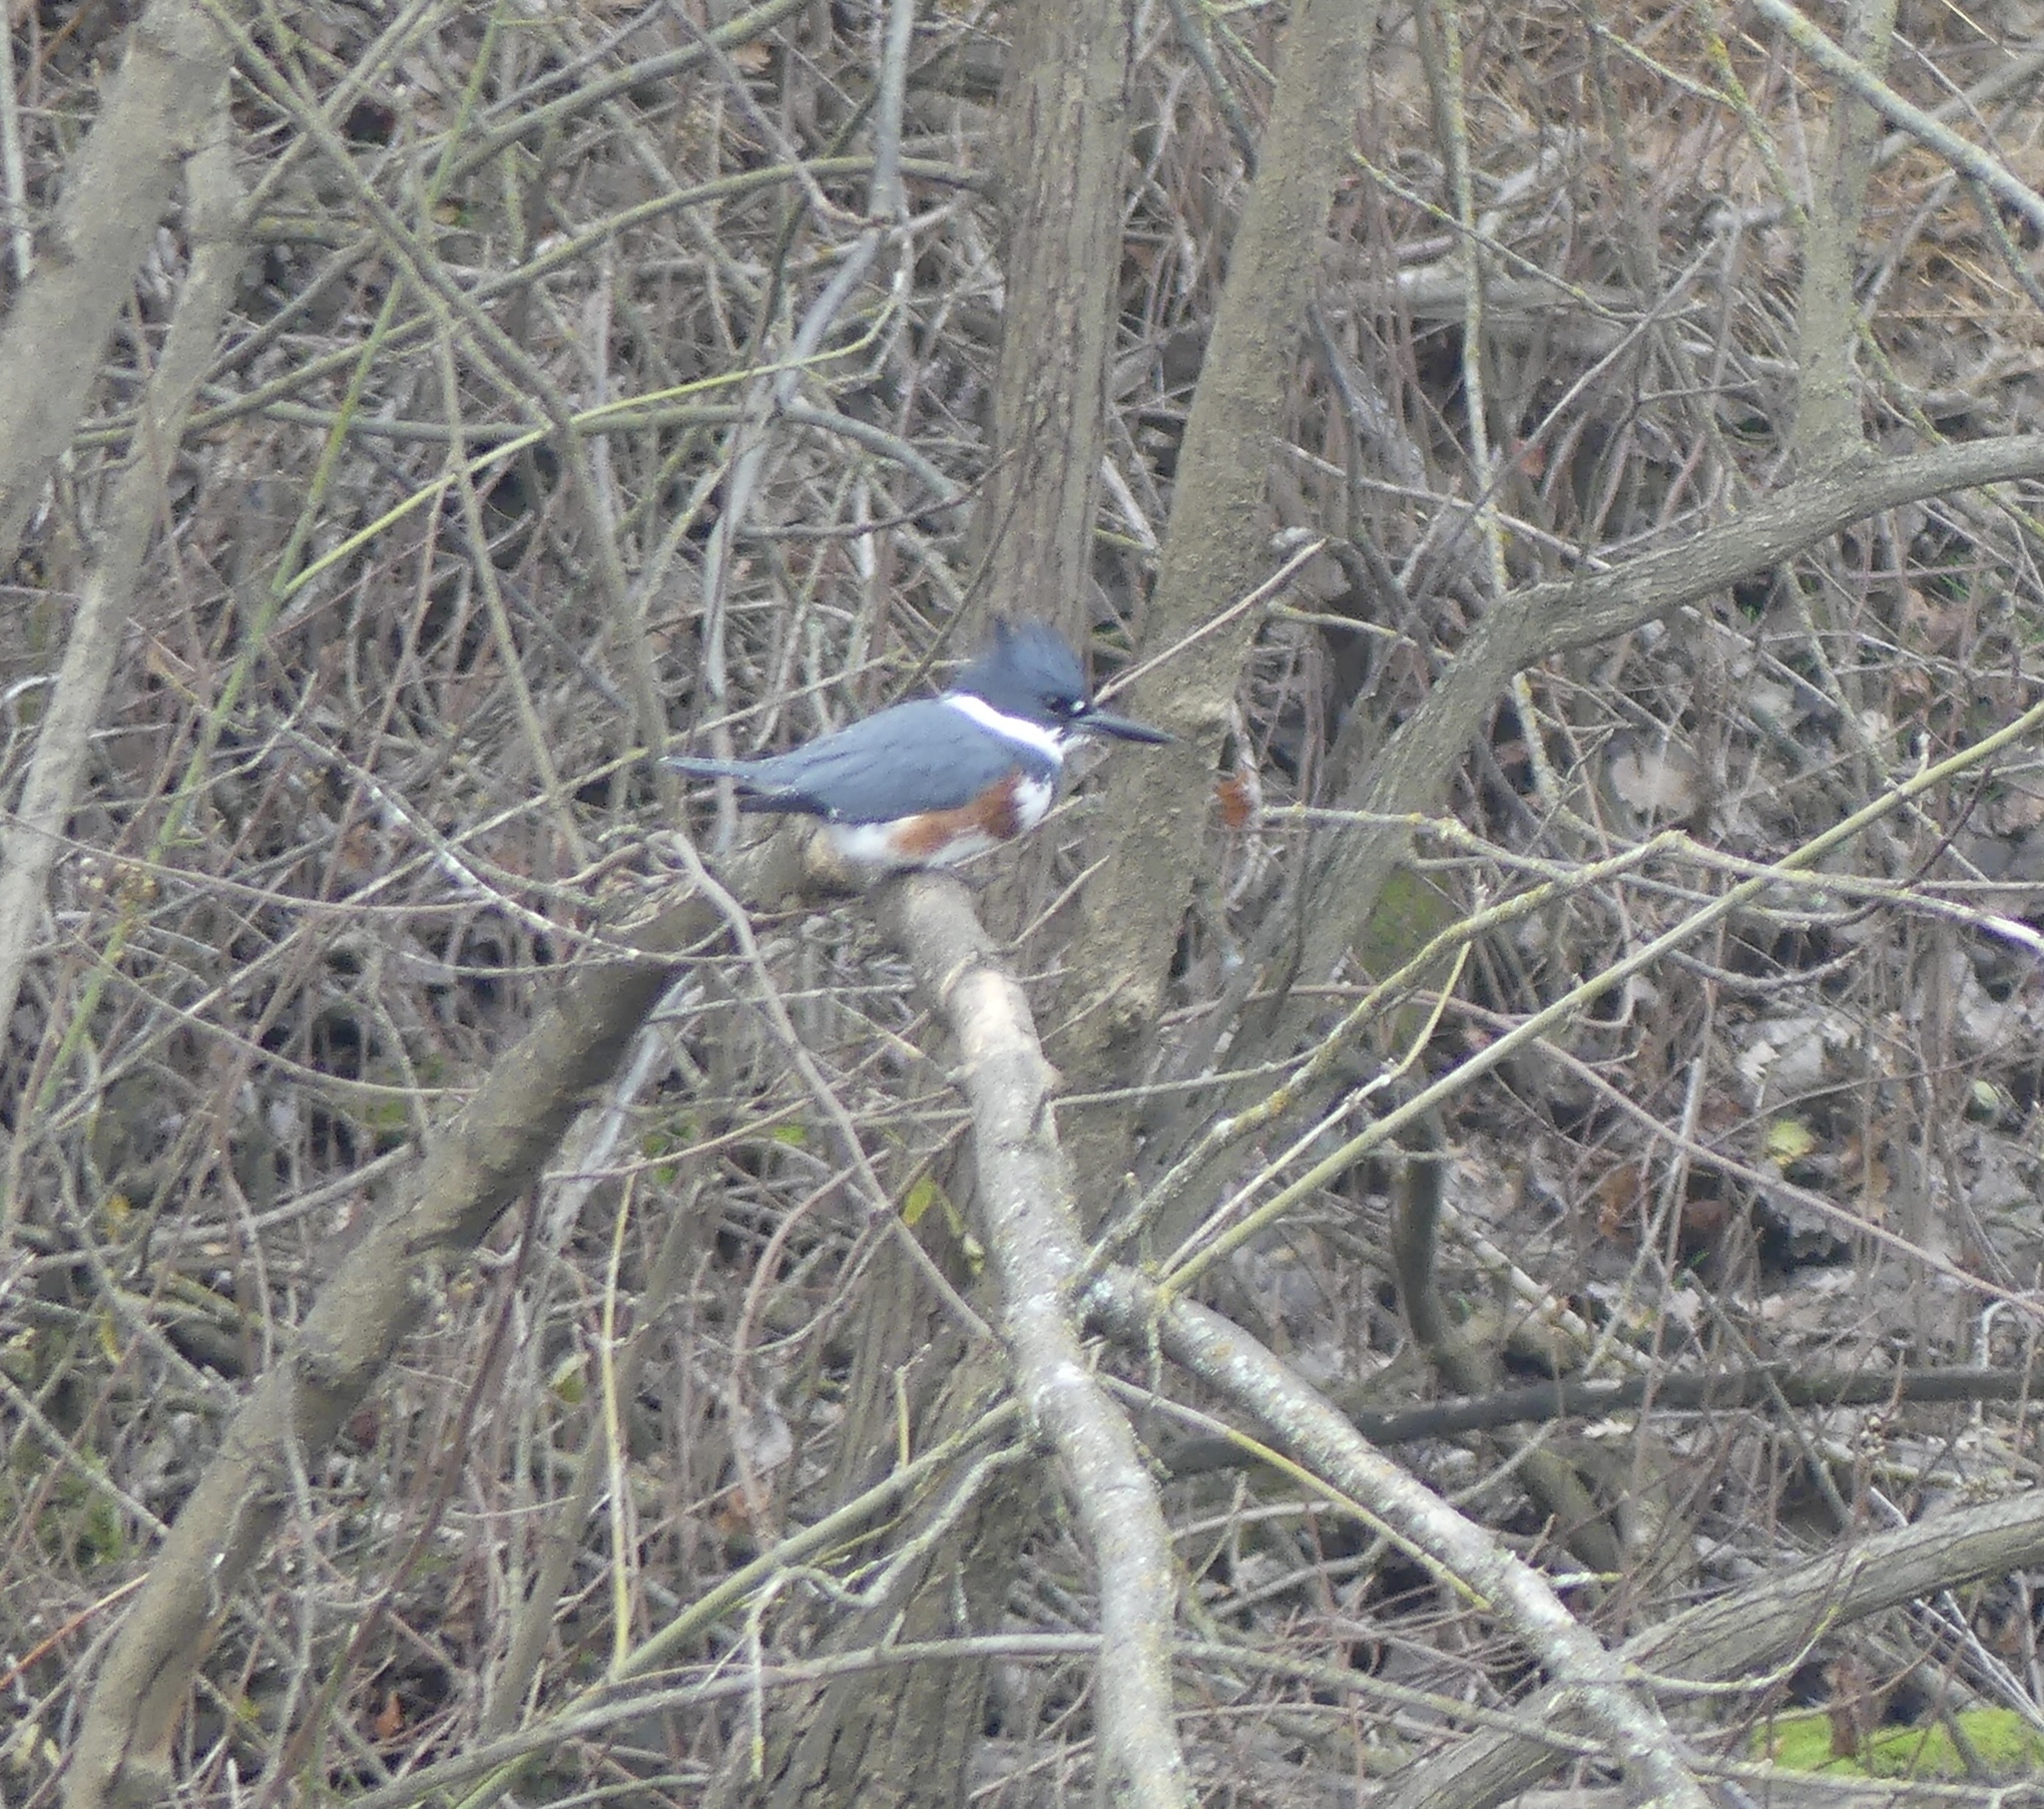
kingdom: Animalia
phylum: Chordata
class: Aves
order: Coraciiformes
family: Alcedinidae
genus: Megaceryle
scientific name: Megaceryle alcyon
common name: Belted kingfisher
